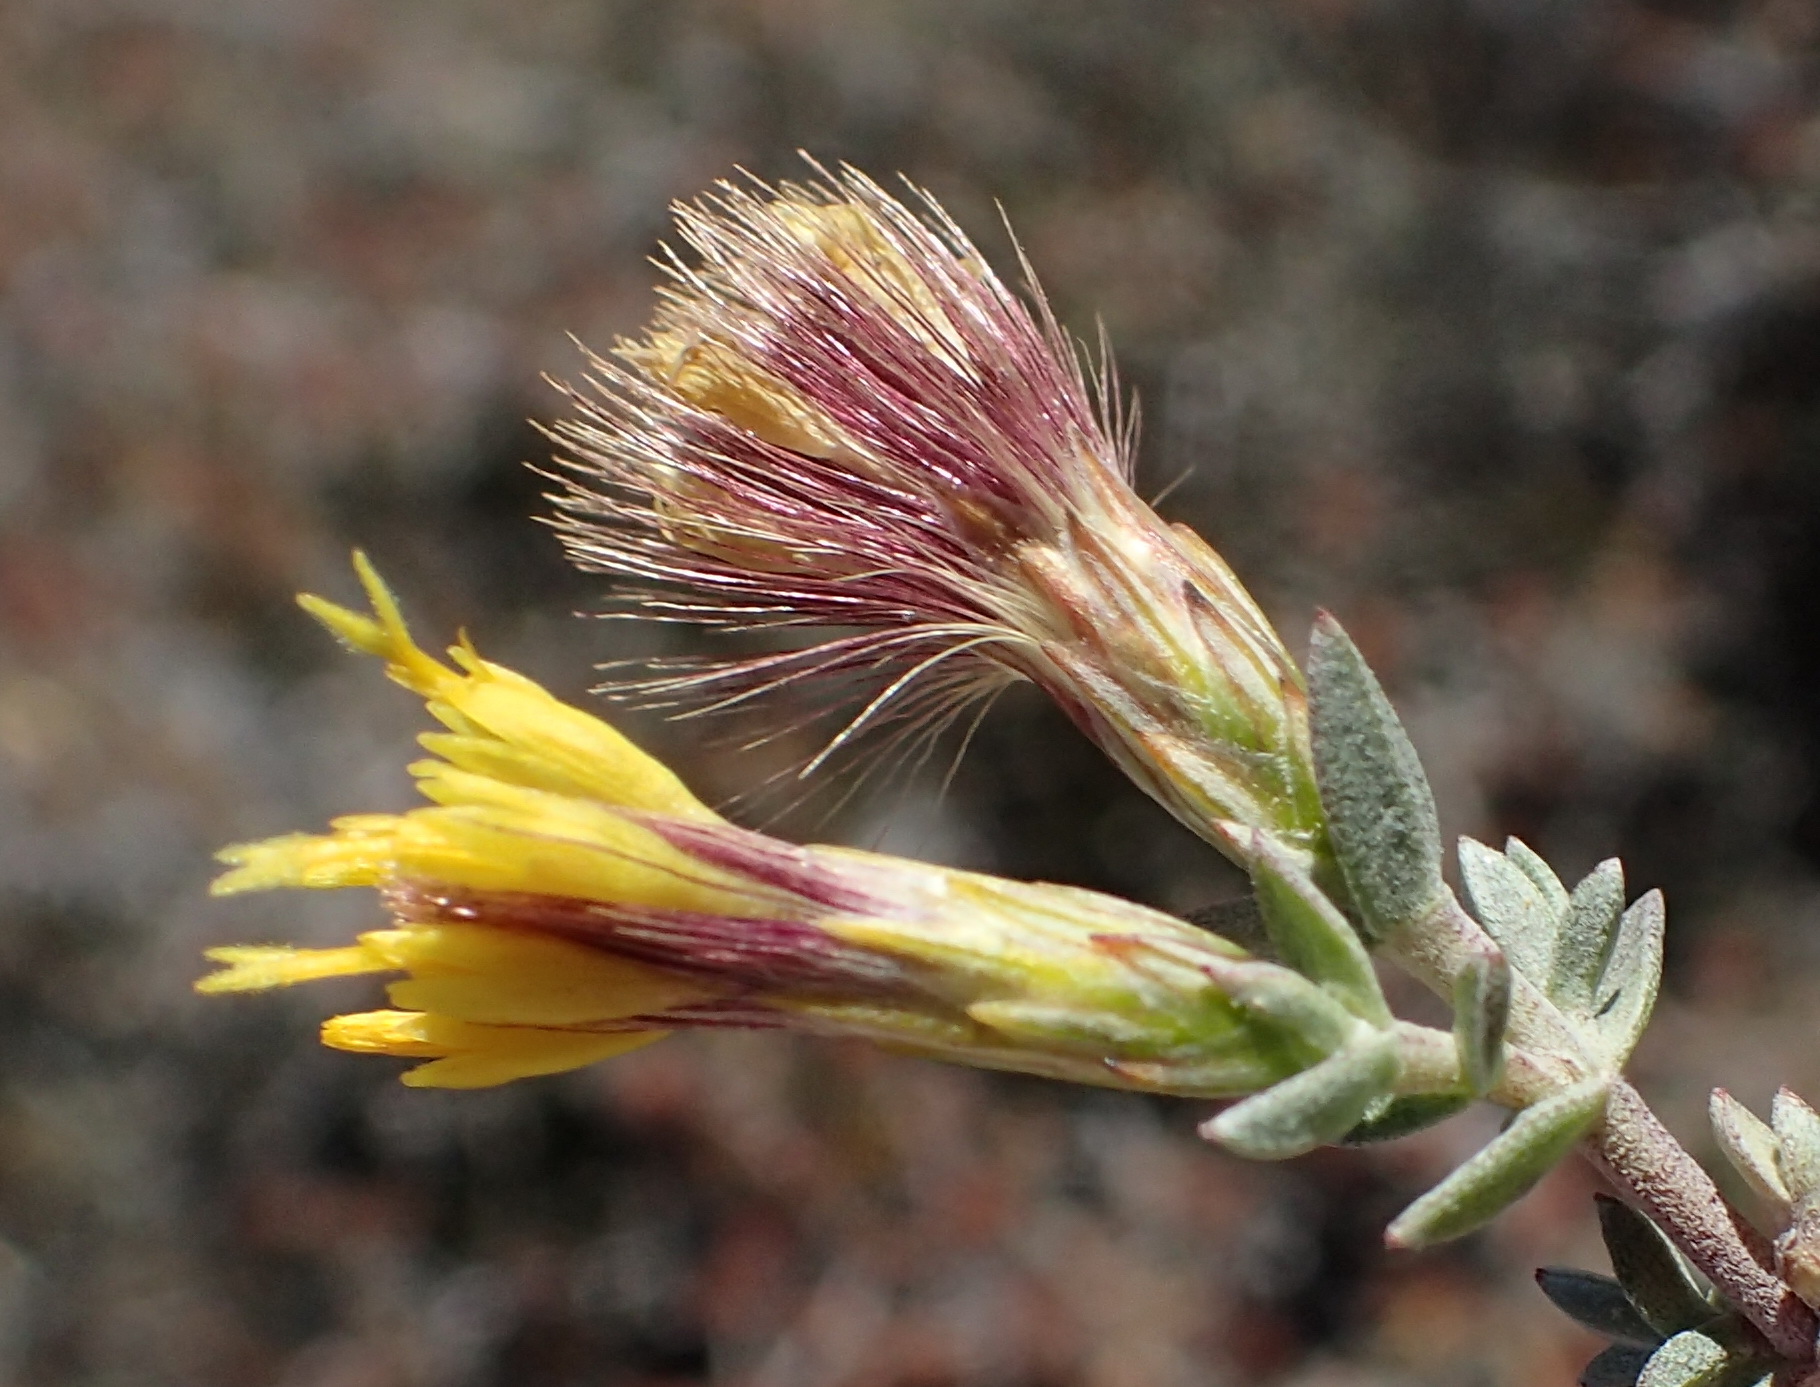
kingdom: Plantae
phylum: Tracheophyta
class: Magnoliopsida
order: Asterales
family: Asteraceae
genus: Pteronia
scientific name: Pteronia erythrochaeta
